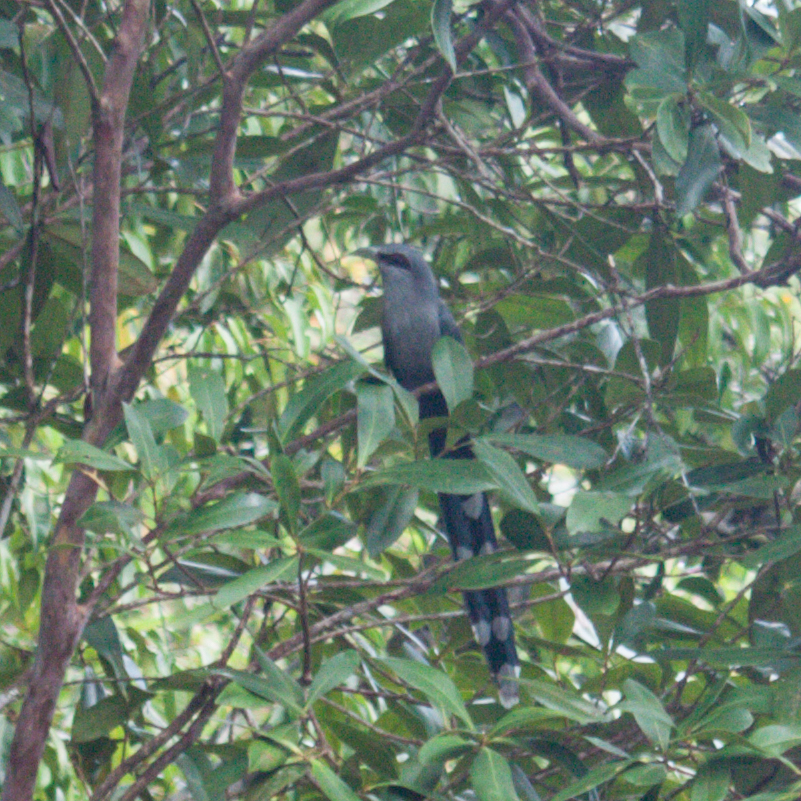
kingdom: Animalia
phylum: Chordata
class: Aves
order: Cuculiformes
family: Cuculidae
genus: Rhopodytes
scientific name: Rhopodytes tristis
